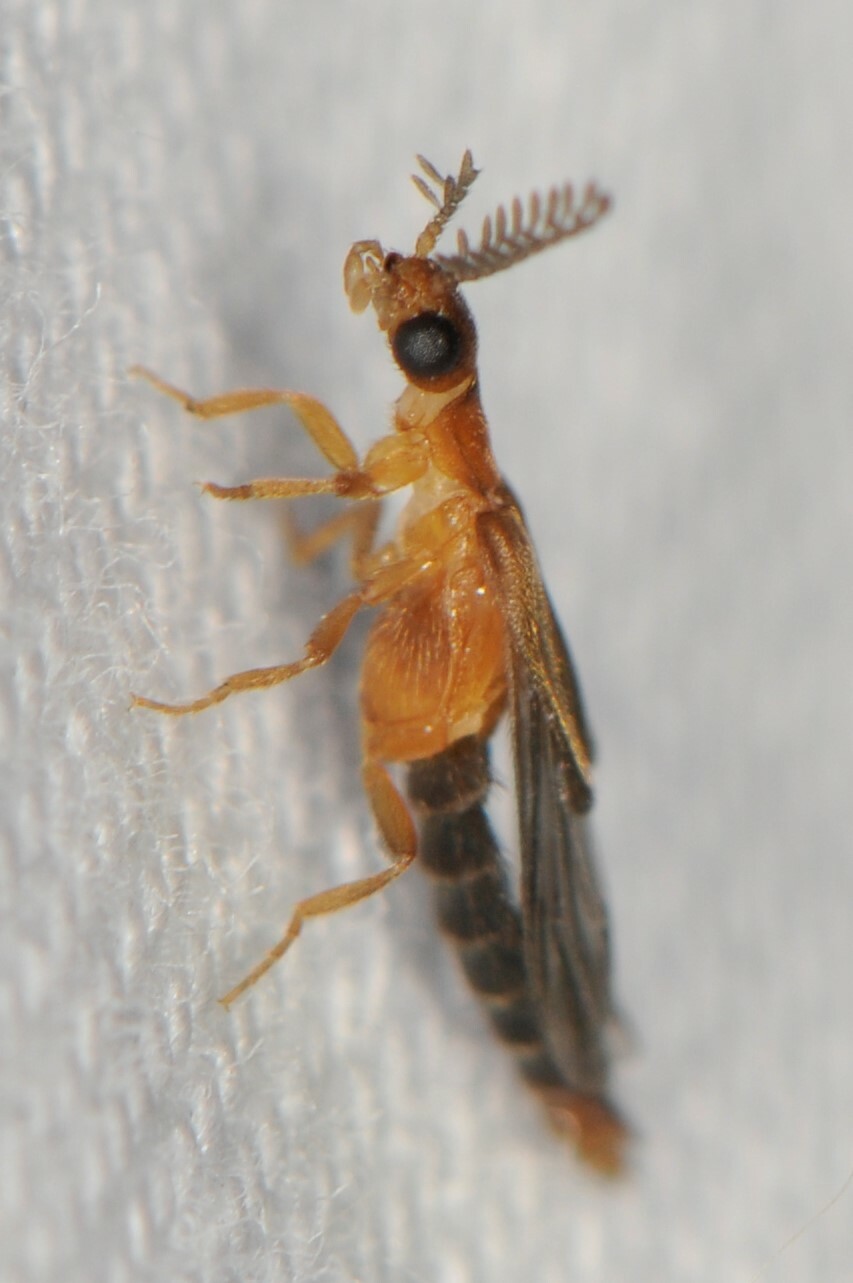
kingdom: Animalia
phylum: Arthropoda
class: Insecta
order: Coleoptera
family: Phengodidae
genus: Distremocephalus
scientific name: Distremocephalus opaculus
